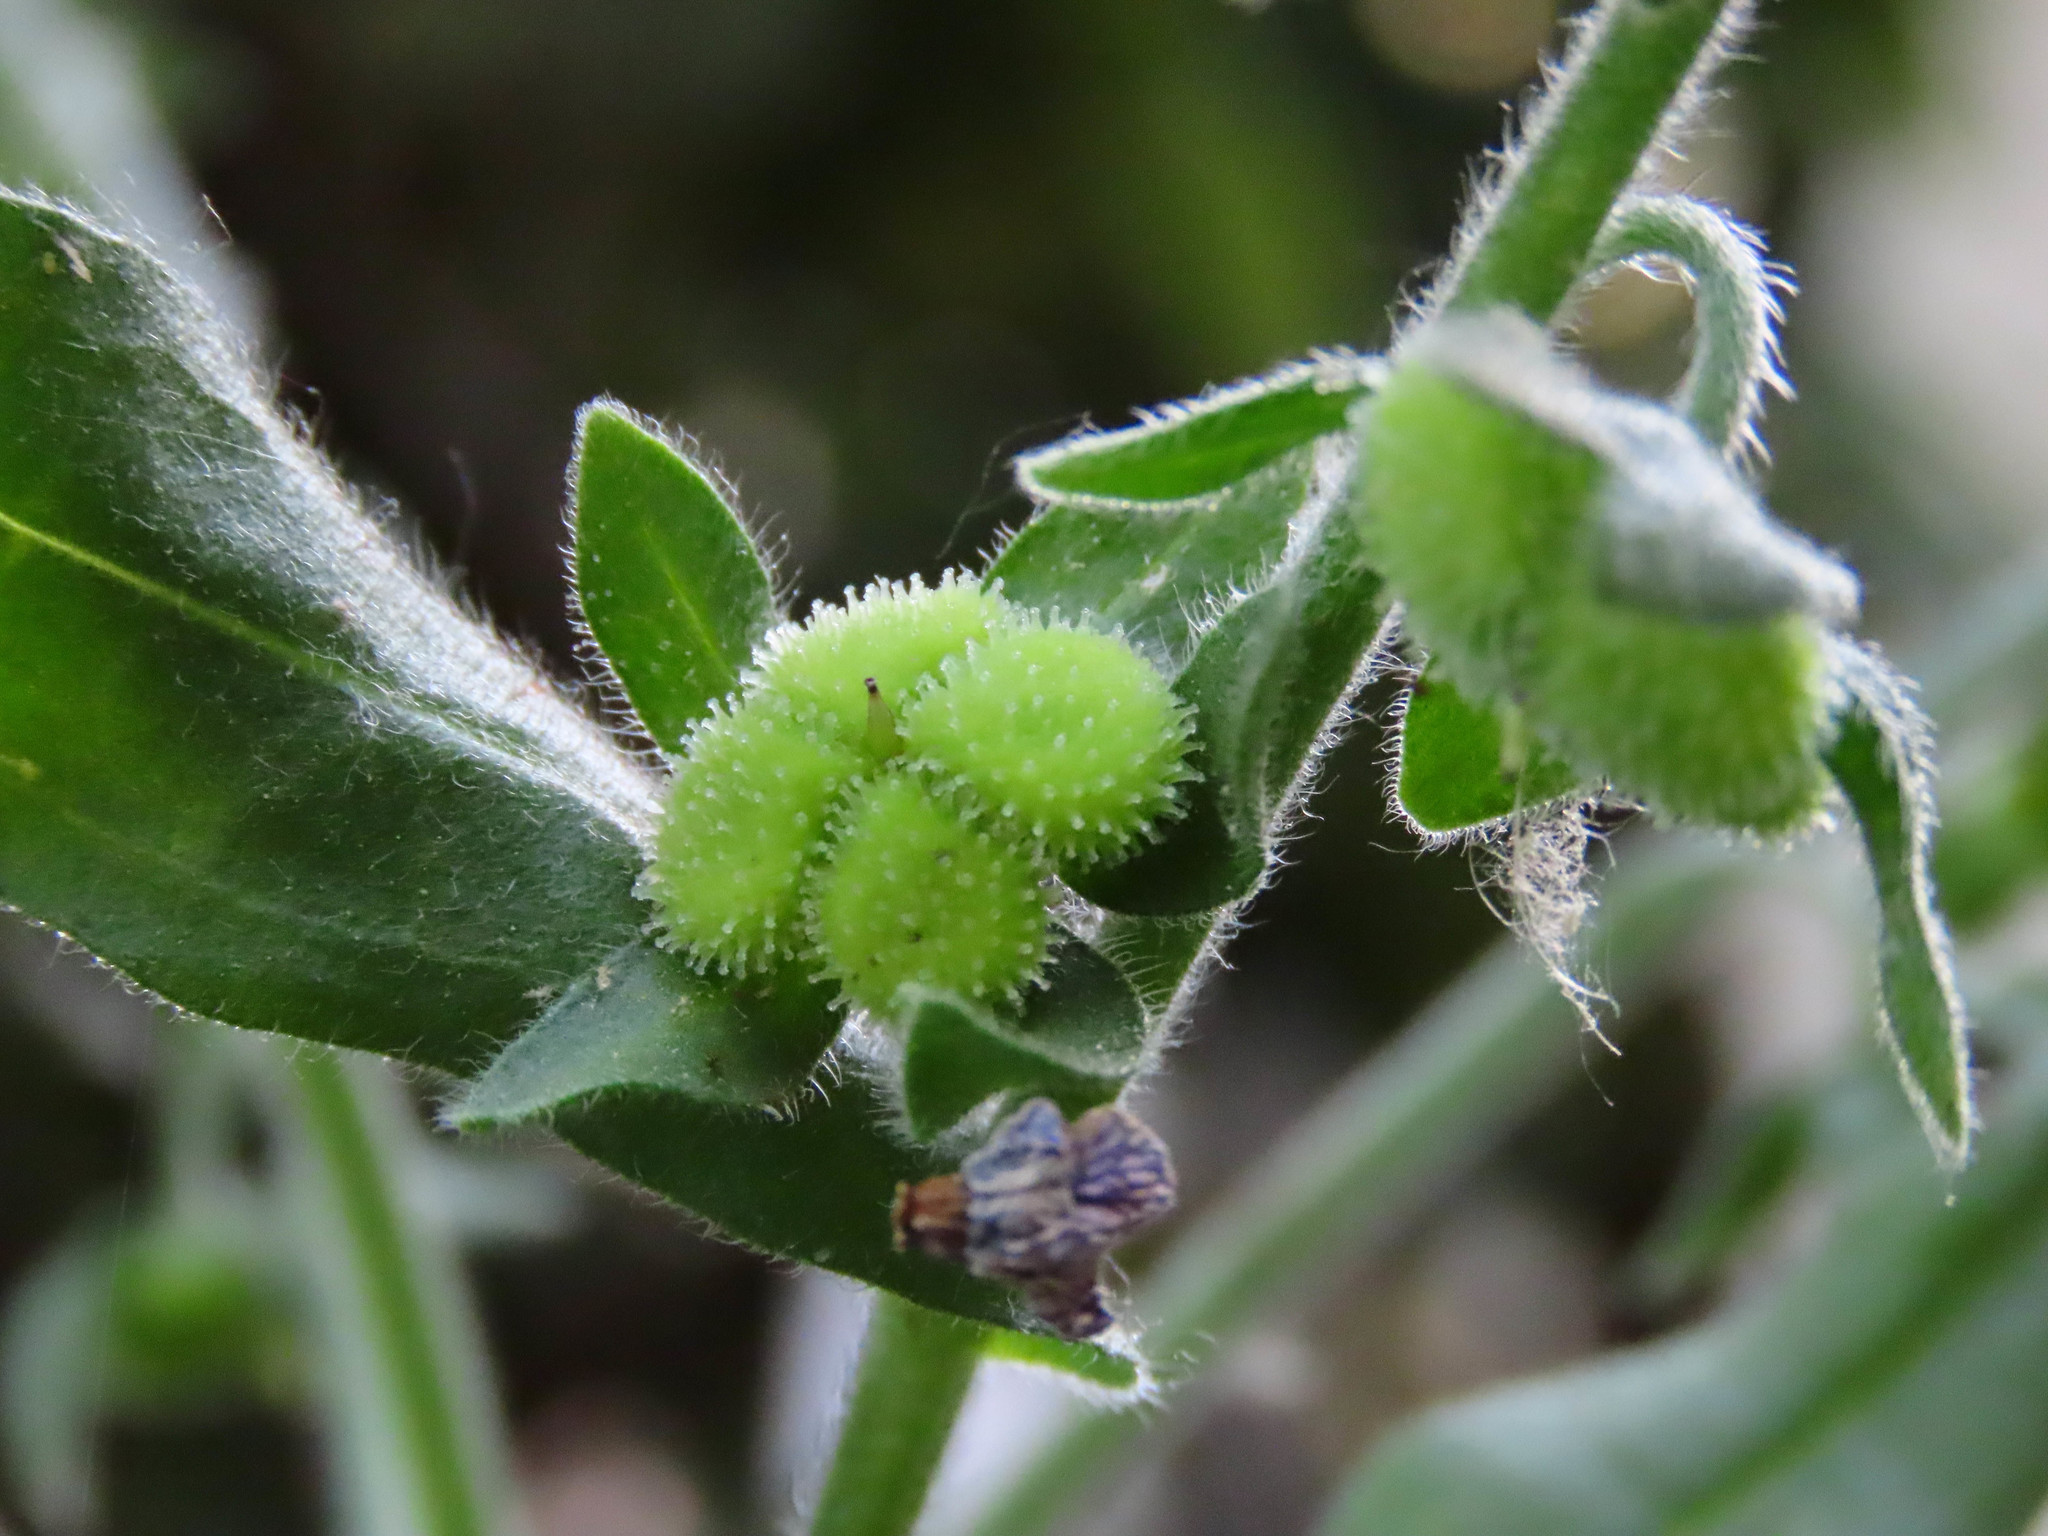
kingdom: Plantae
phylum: Tracheophyta
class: Magnoliopsida
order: Boraginales
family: Boraginaceae
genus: Cynoglossum
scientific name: Cynoglossum creticum
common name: Blue hound's tongue
